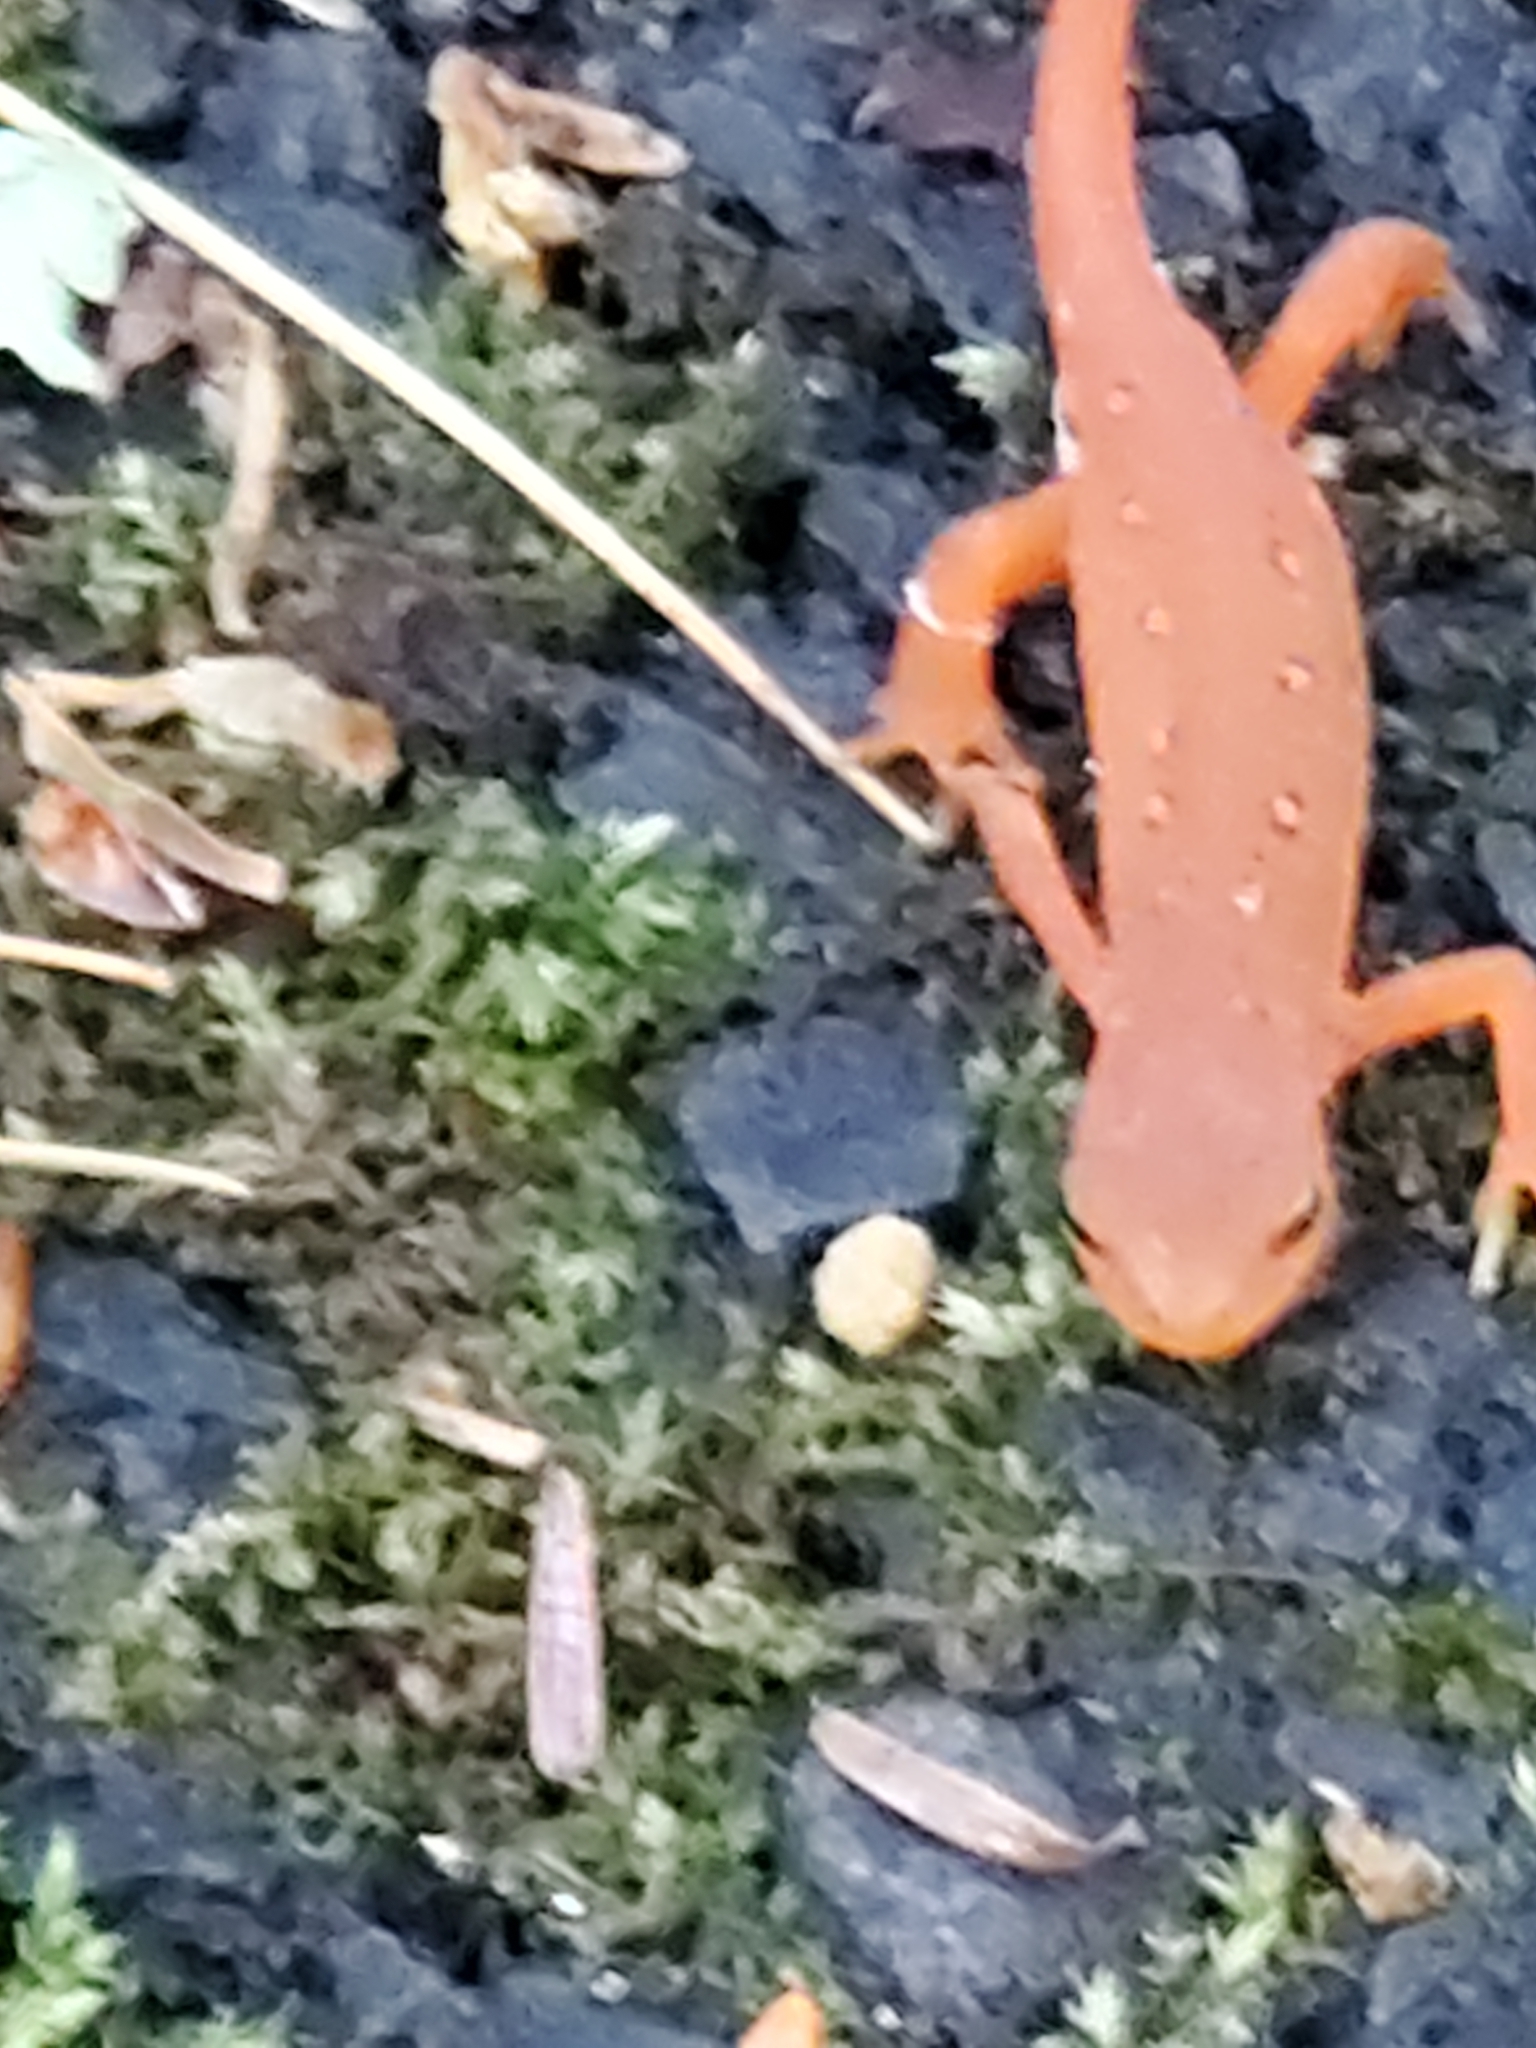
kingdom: Animalia
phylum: Chordata
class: Amphibia
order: Caudata
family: Salamandridae
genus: Notophthalmus
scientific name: Notophthalmus viridescens
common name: Eastern newt
